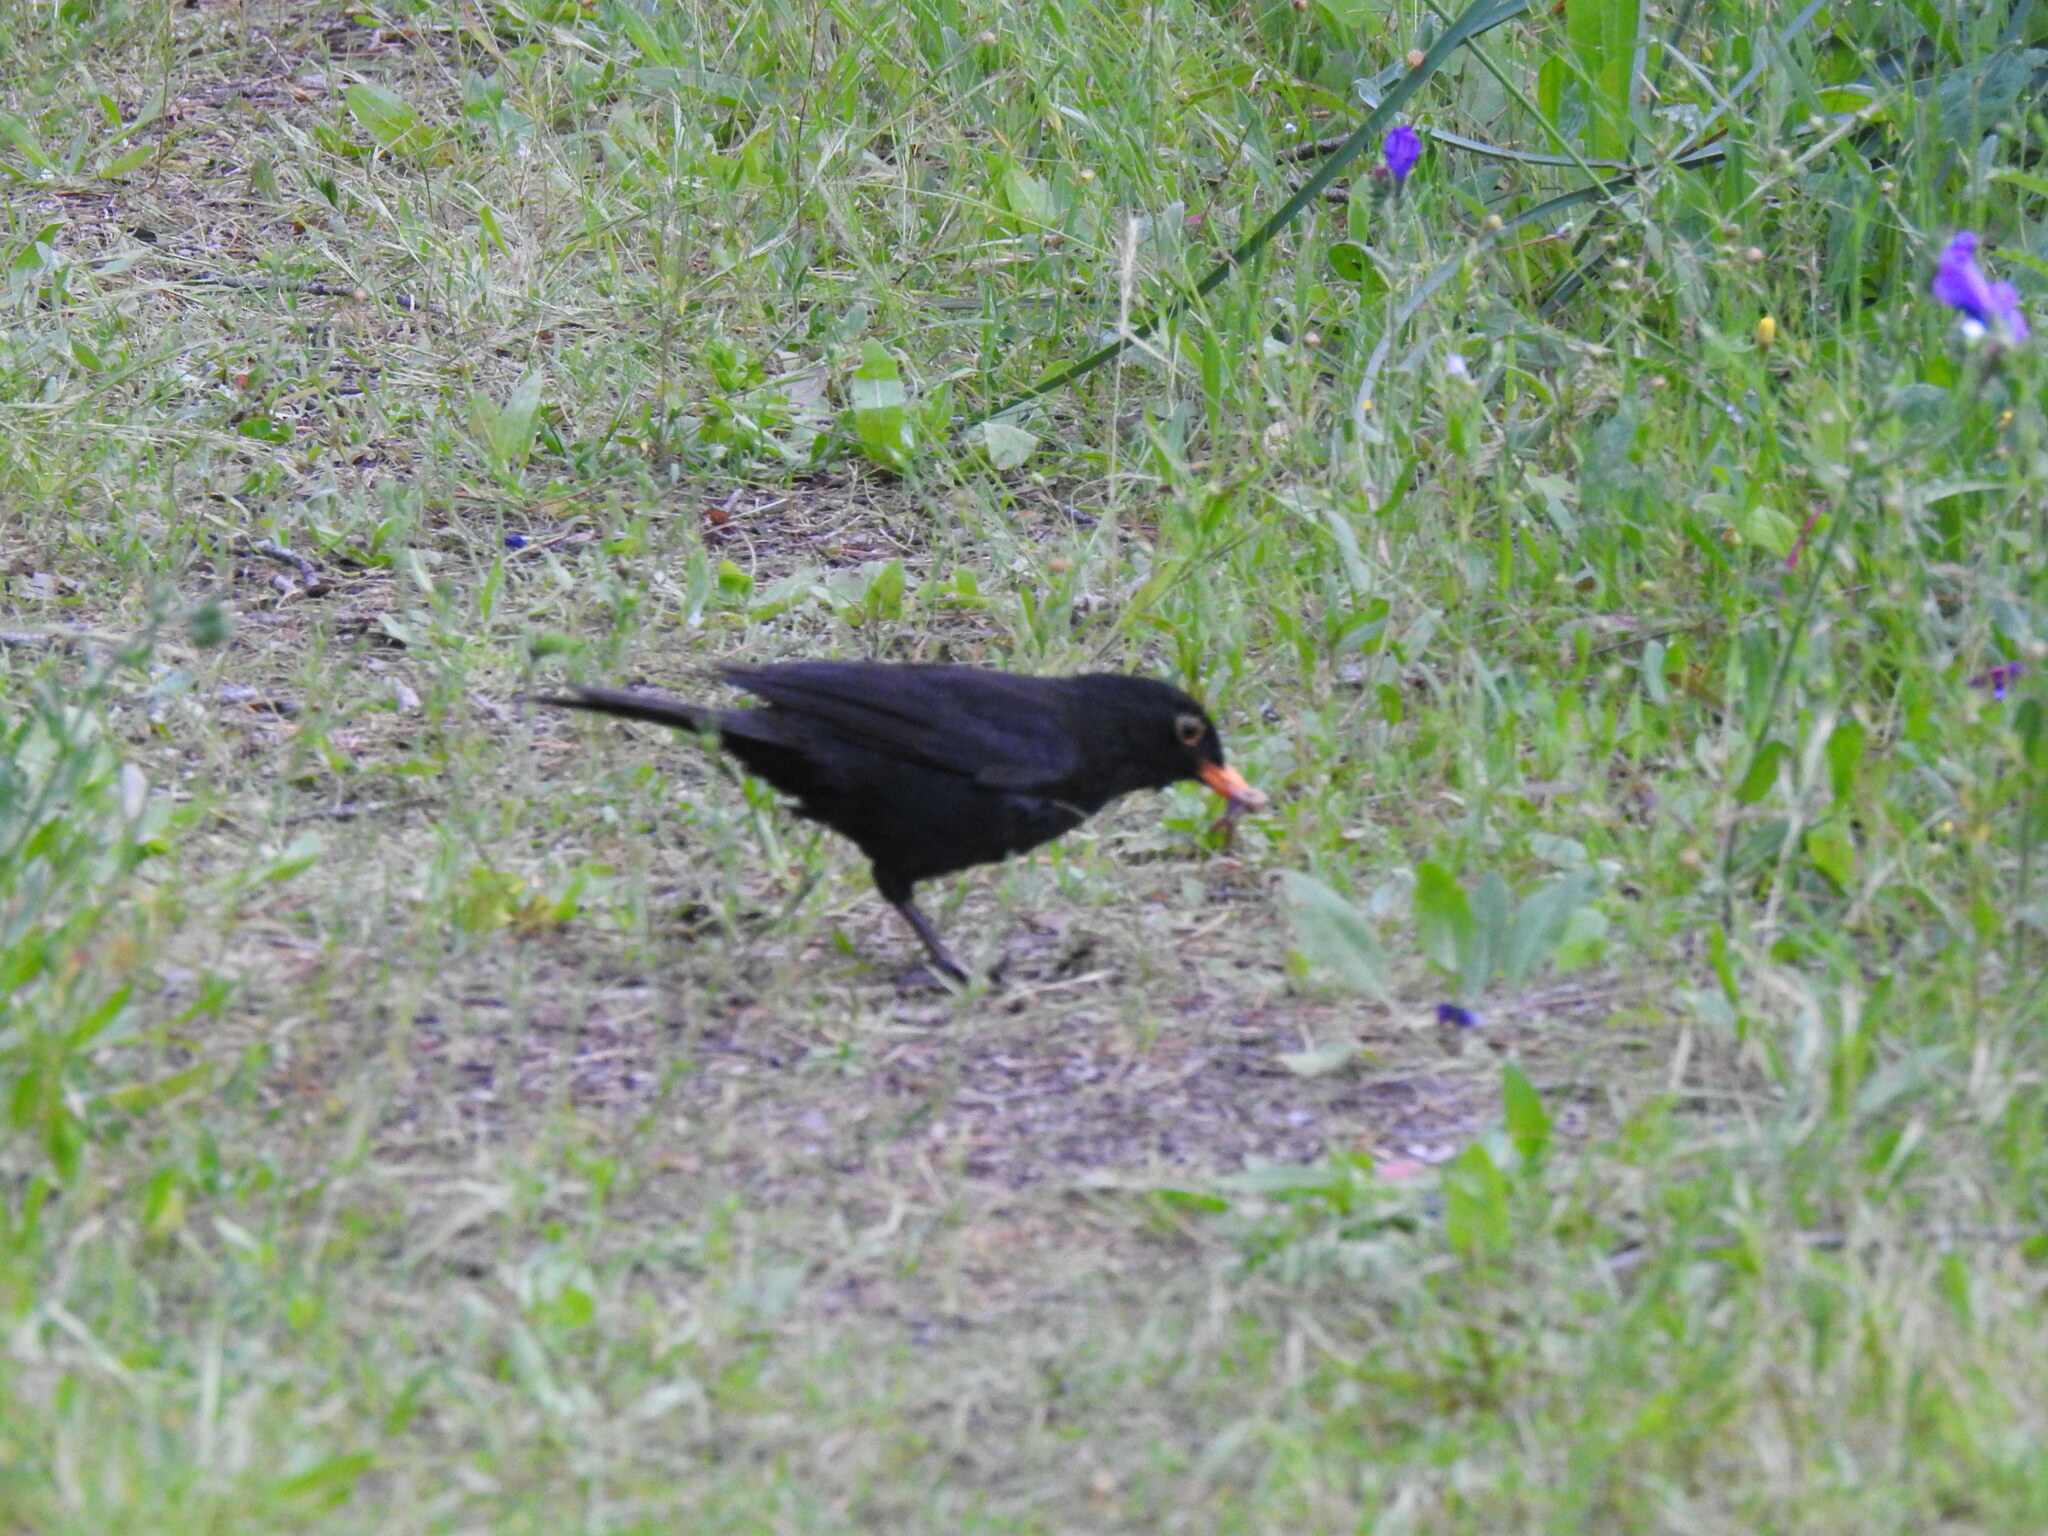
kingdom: Animalia
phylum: Chordata
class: Aves
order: Passeriformes
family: Turdidae
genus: Turdus
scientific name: Turdus merula
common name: Common blackbird
